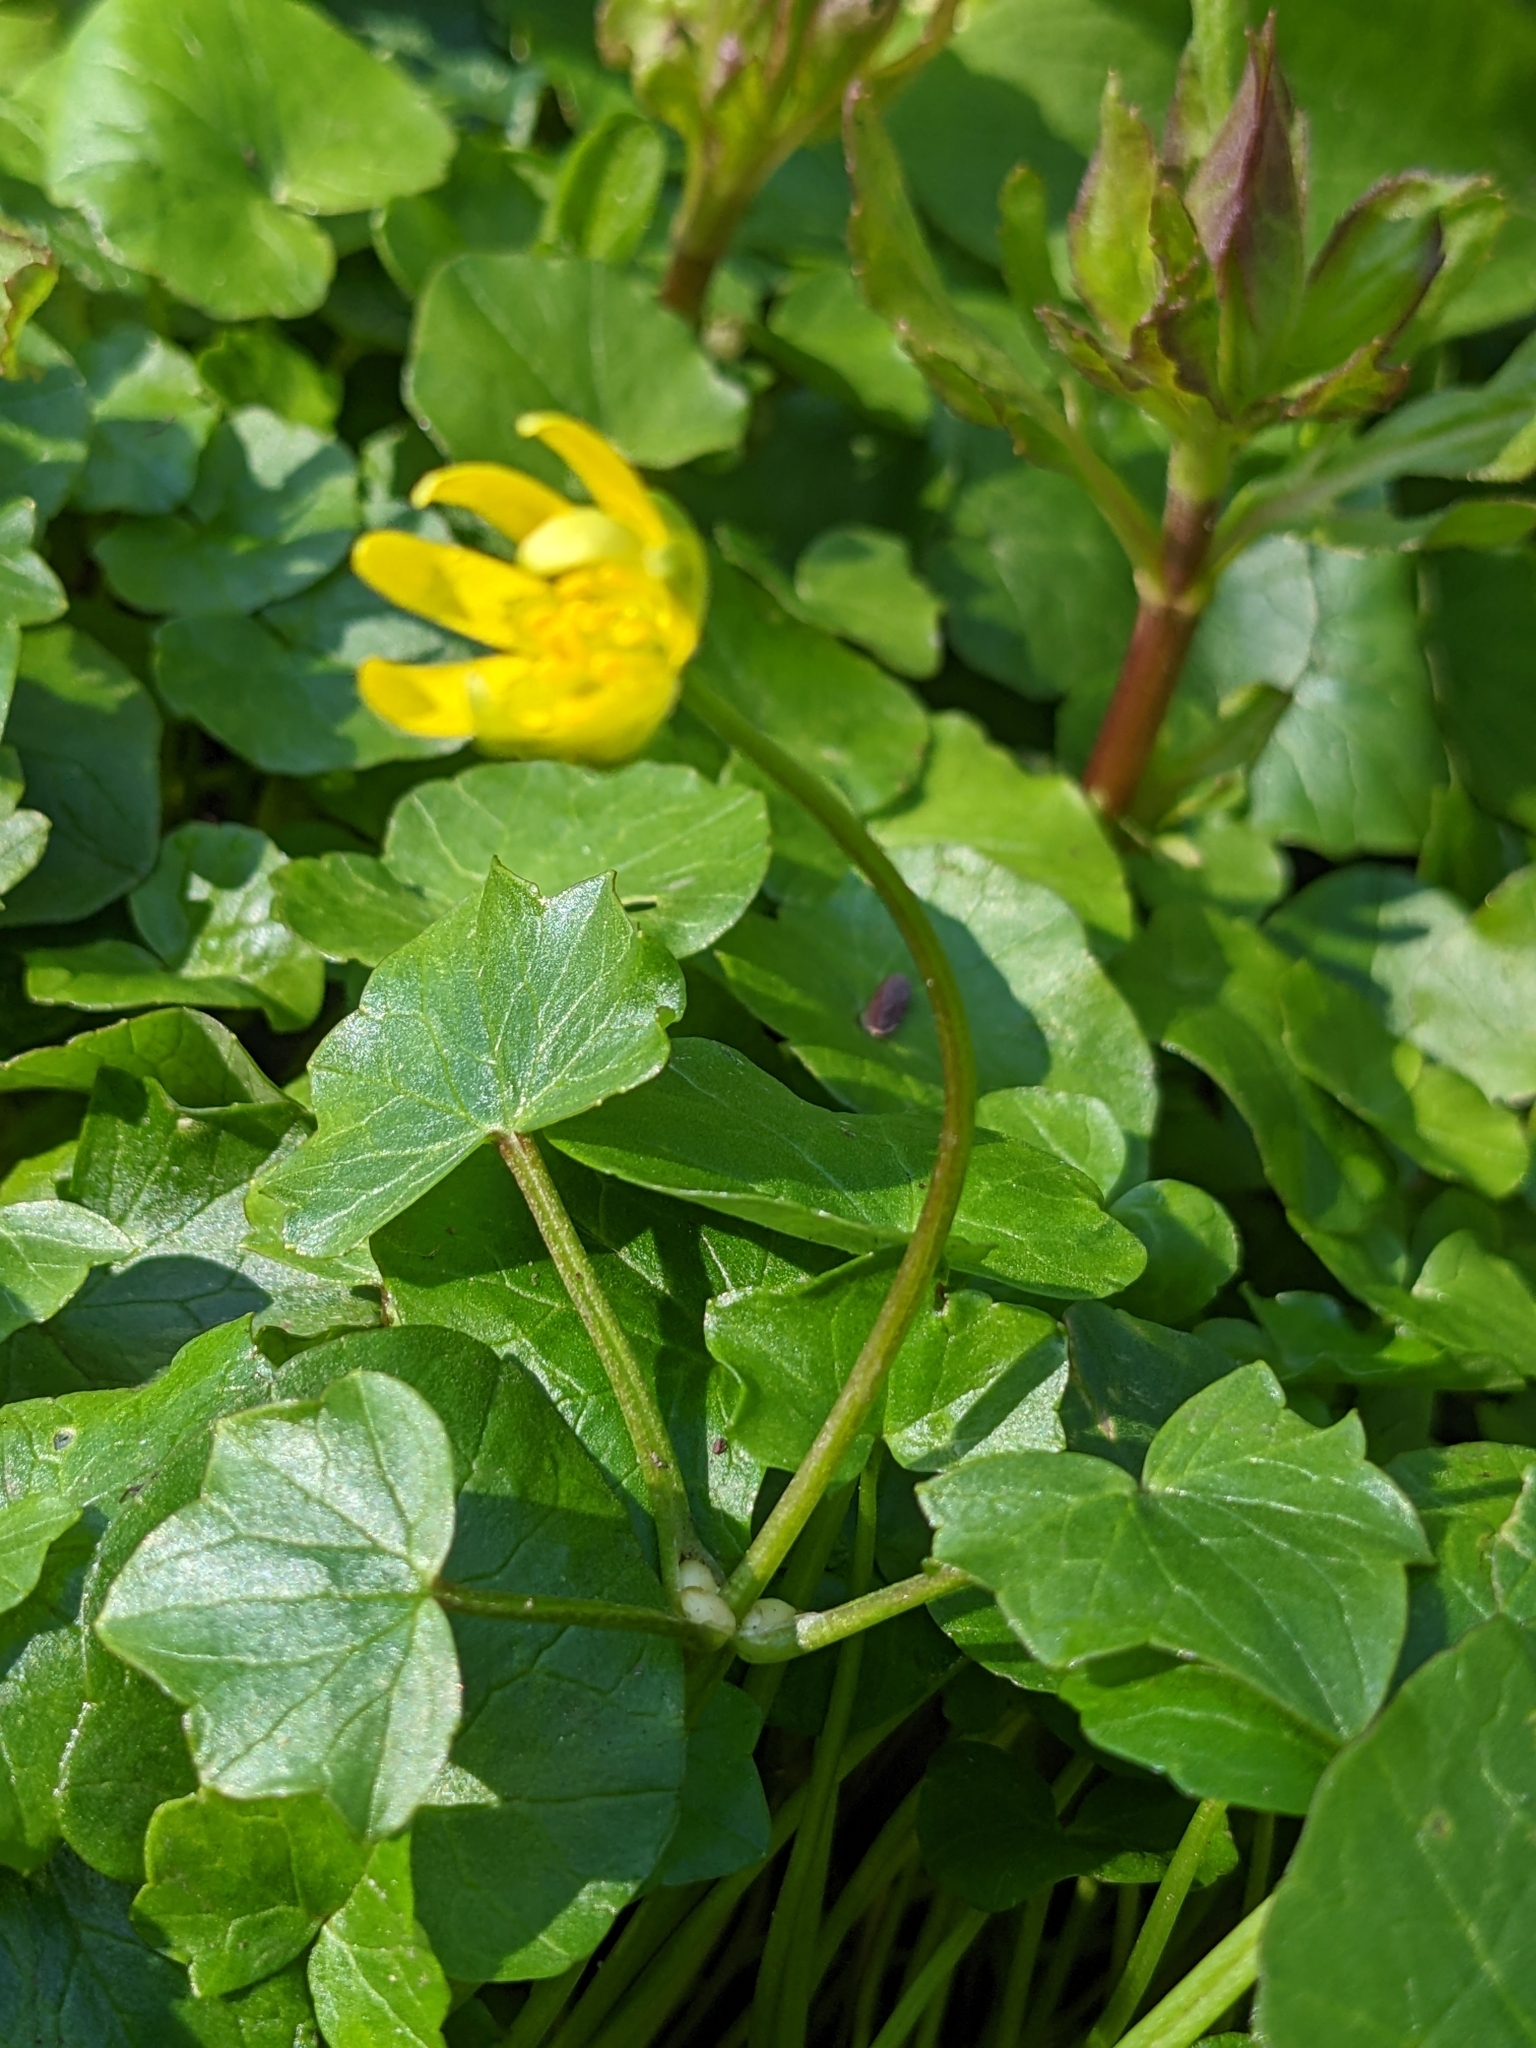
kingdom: Plantae
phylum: Tracheophyta
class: Magnoliopsida
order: Ranunculales
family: Ranunculaceae
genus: Ficaria
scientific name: Ficaria verna
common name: Lesser celandine
